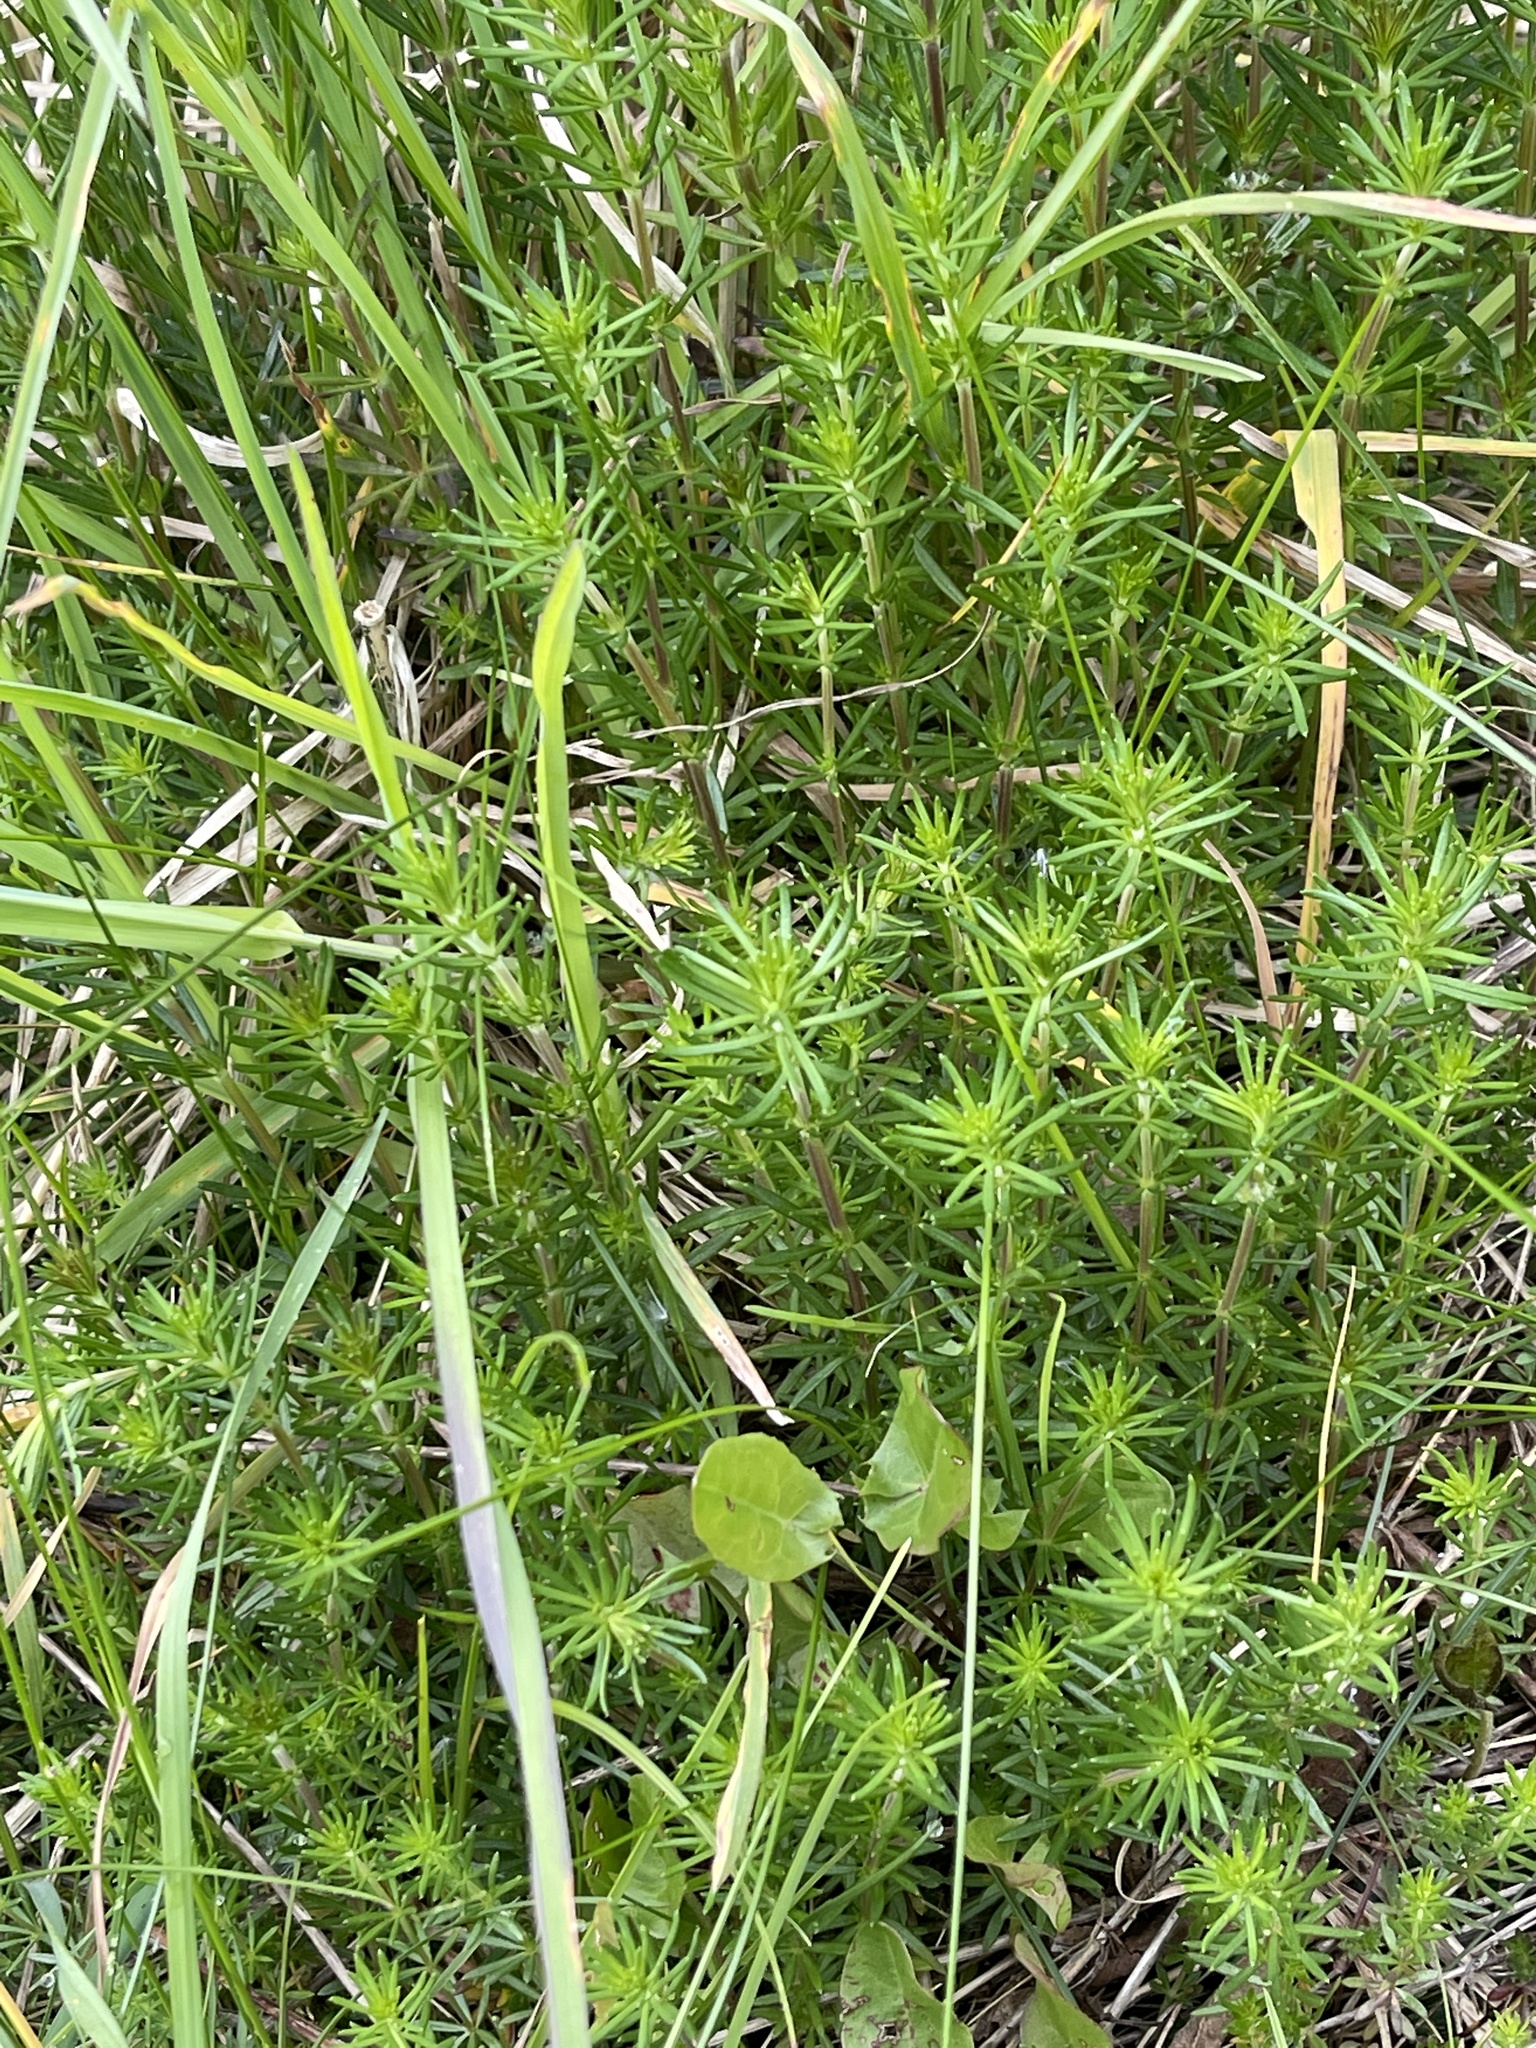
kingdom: Plantae
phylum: Tracheophyta
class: Magnoliopsida
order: Gentianales
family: Rubiaceae
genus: Galium
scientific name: Galium verum
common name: Lady's bedstraw
